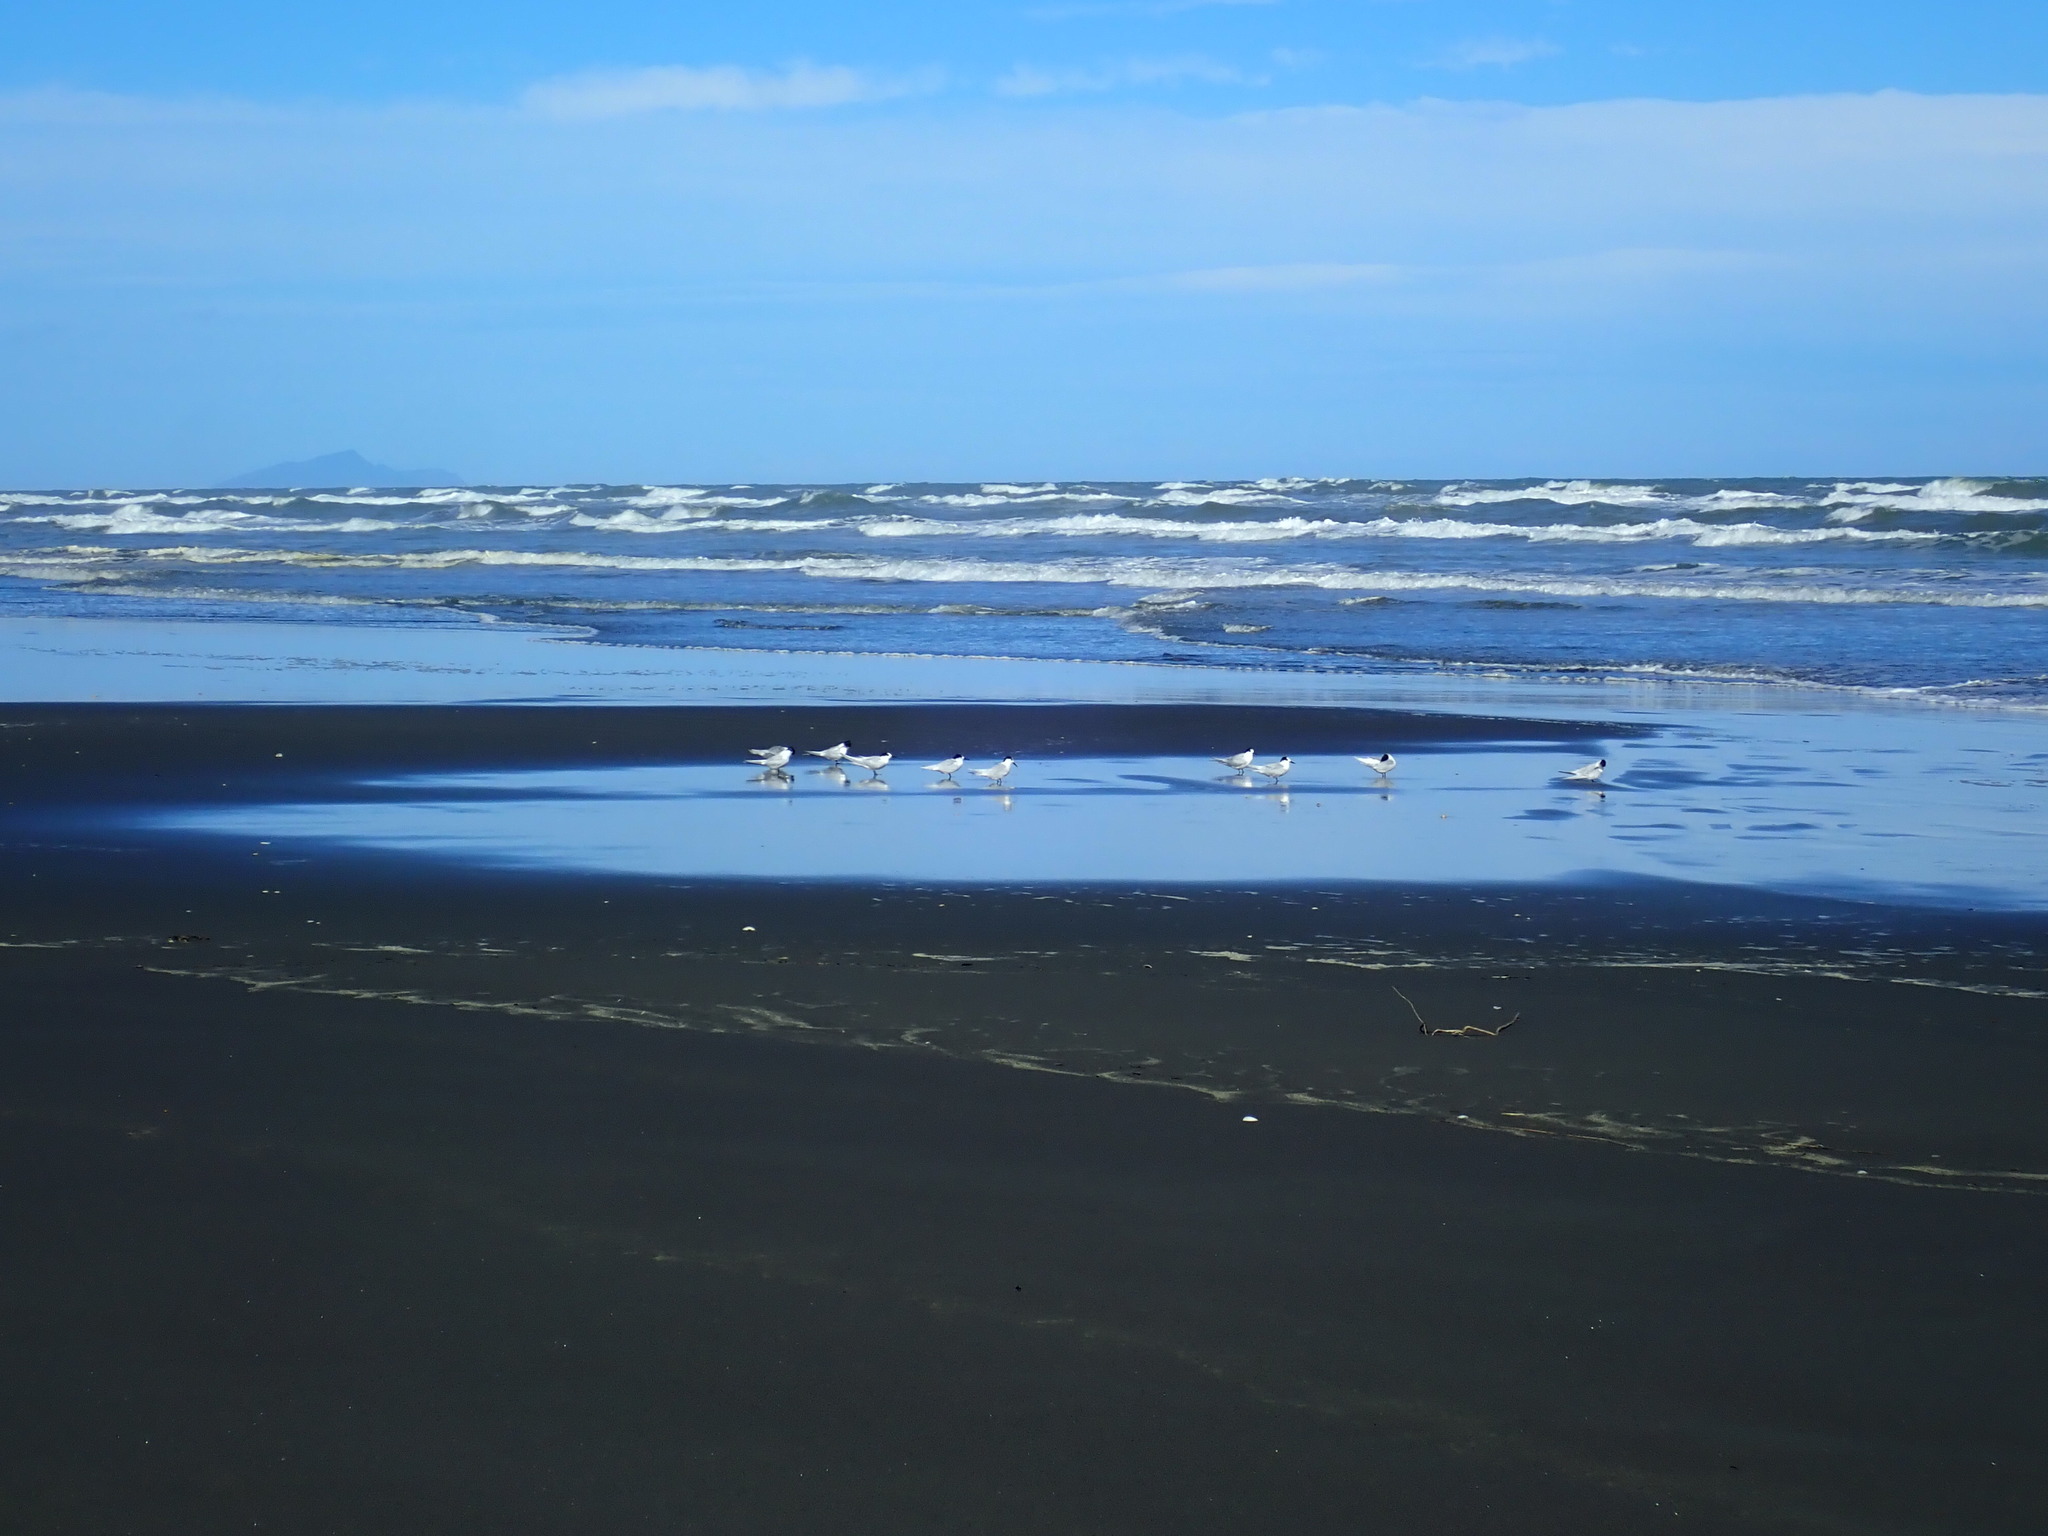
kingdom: Animalia
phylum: Chordata
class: Aves
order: Charadriiformes
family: Laridae
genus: Sterna
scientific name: Sterna striata
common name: White-fronted tern
